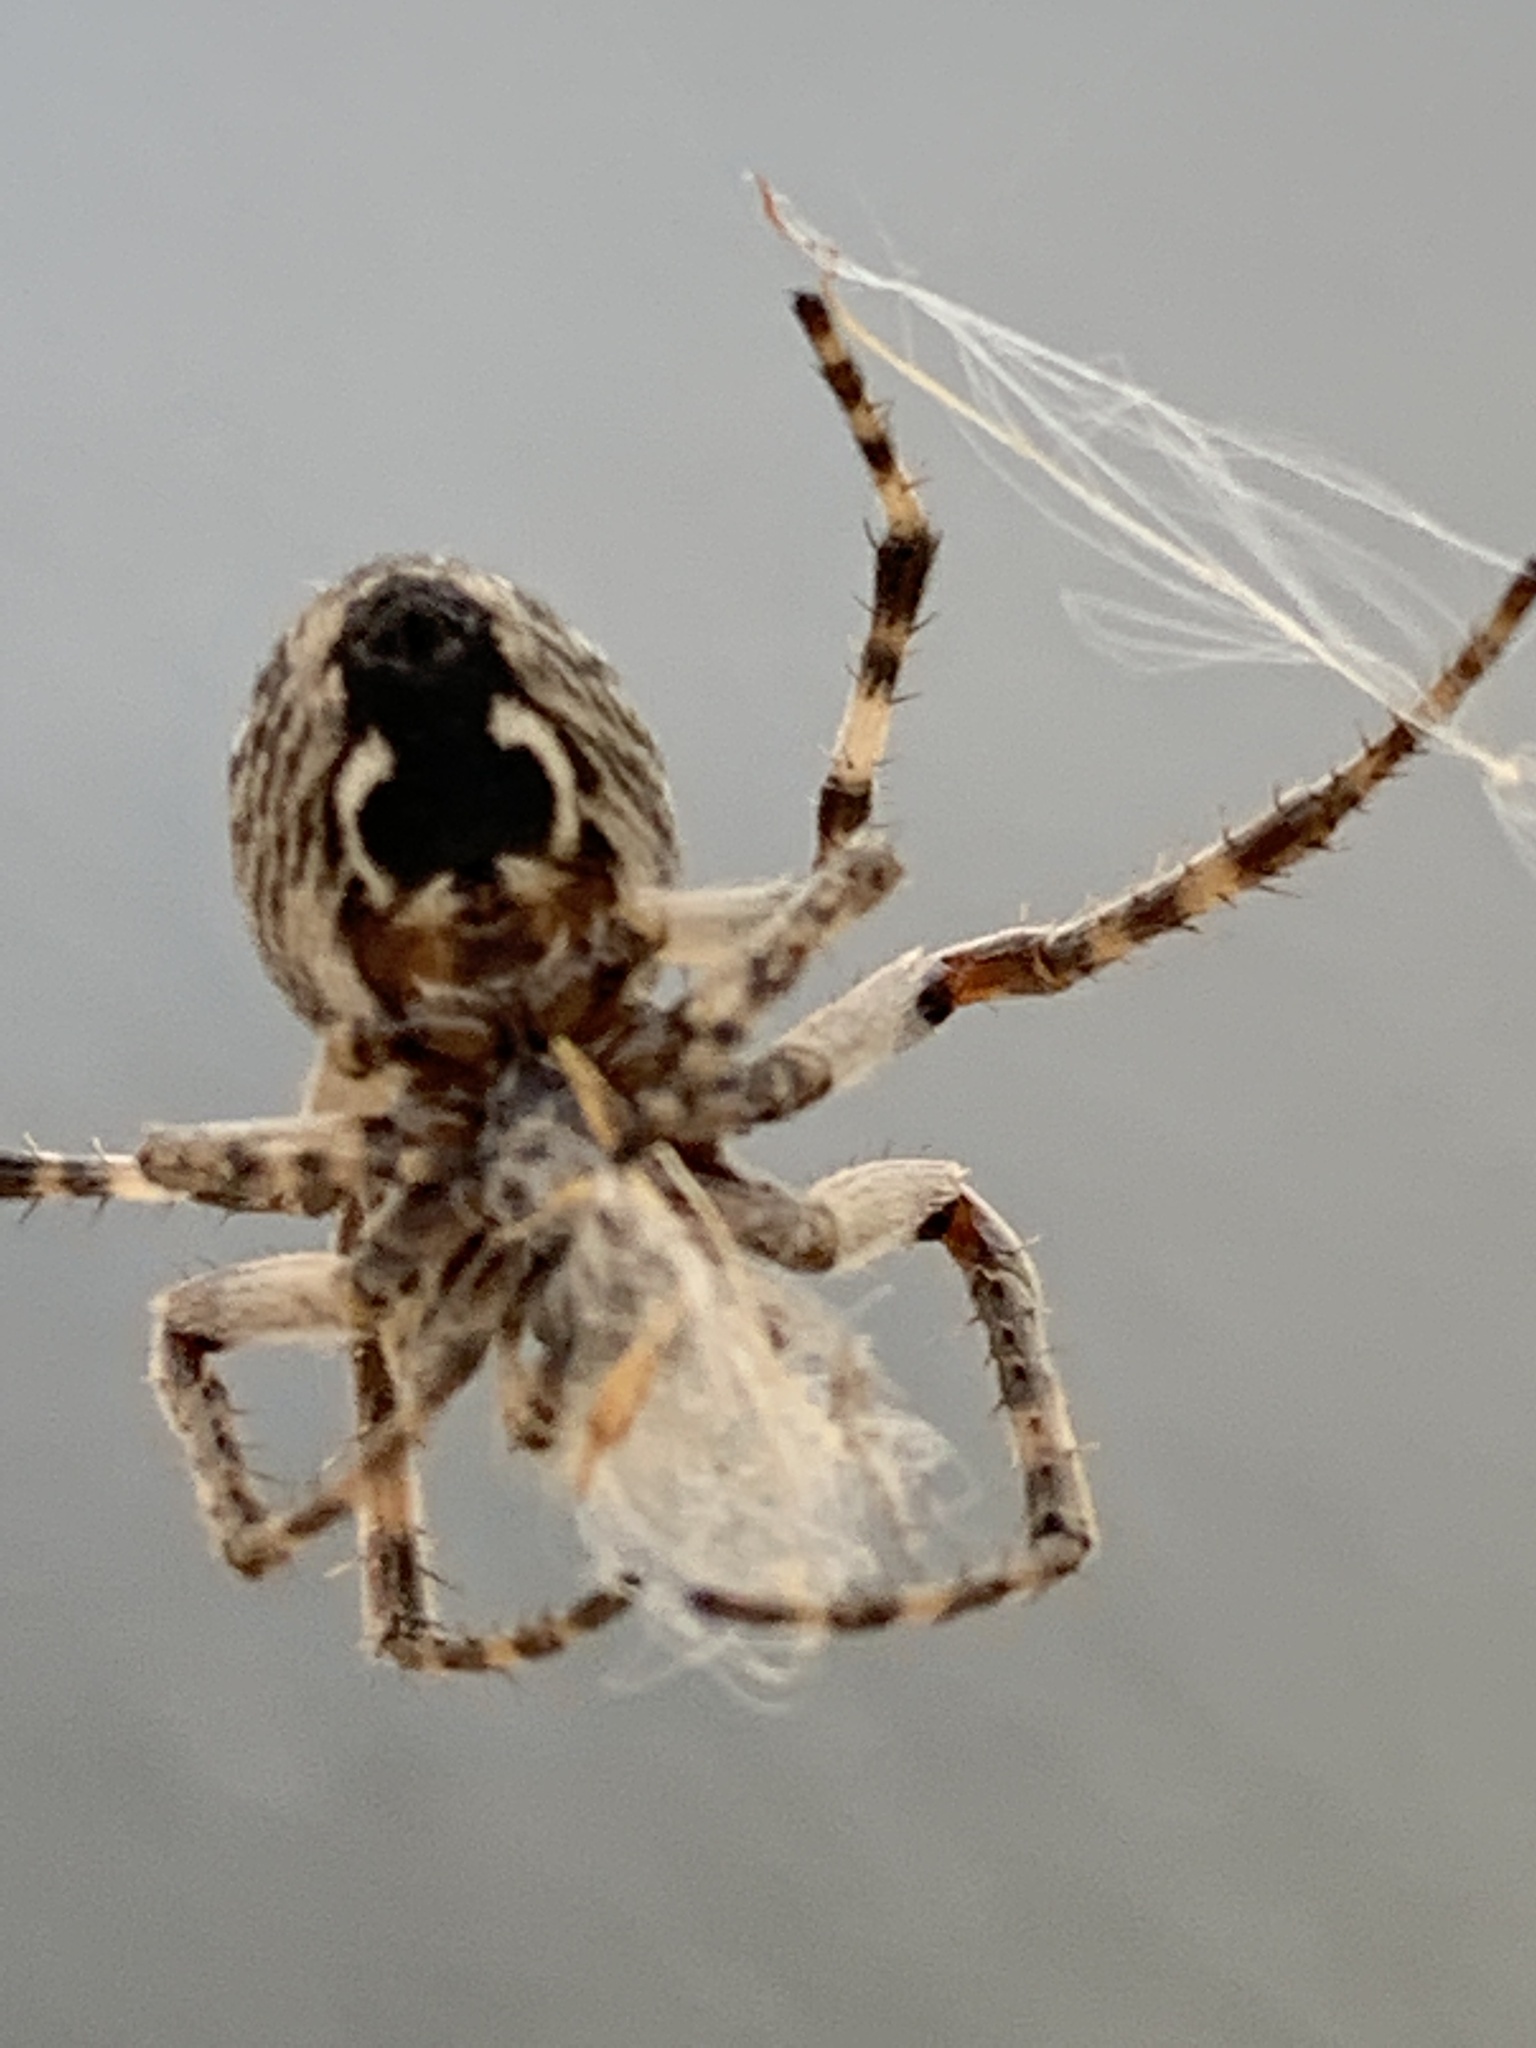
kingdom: Animalia
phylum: Arthropoda
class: Arachnida
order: Araneae
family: Araneidae
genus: Larinioides
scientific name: Larinioides sclopetarius
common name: Bridge orbweaver
